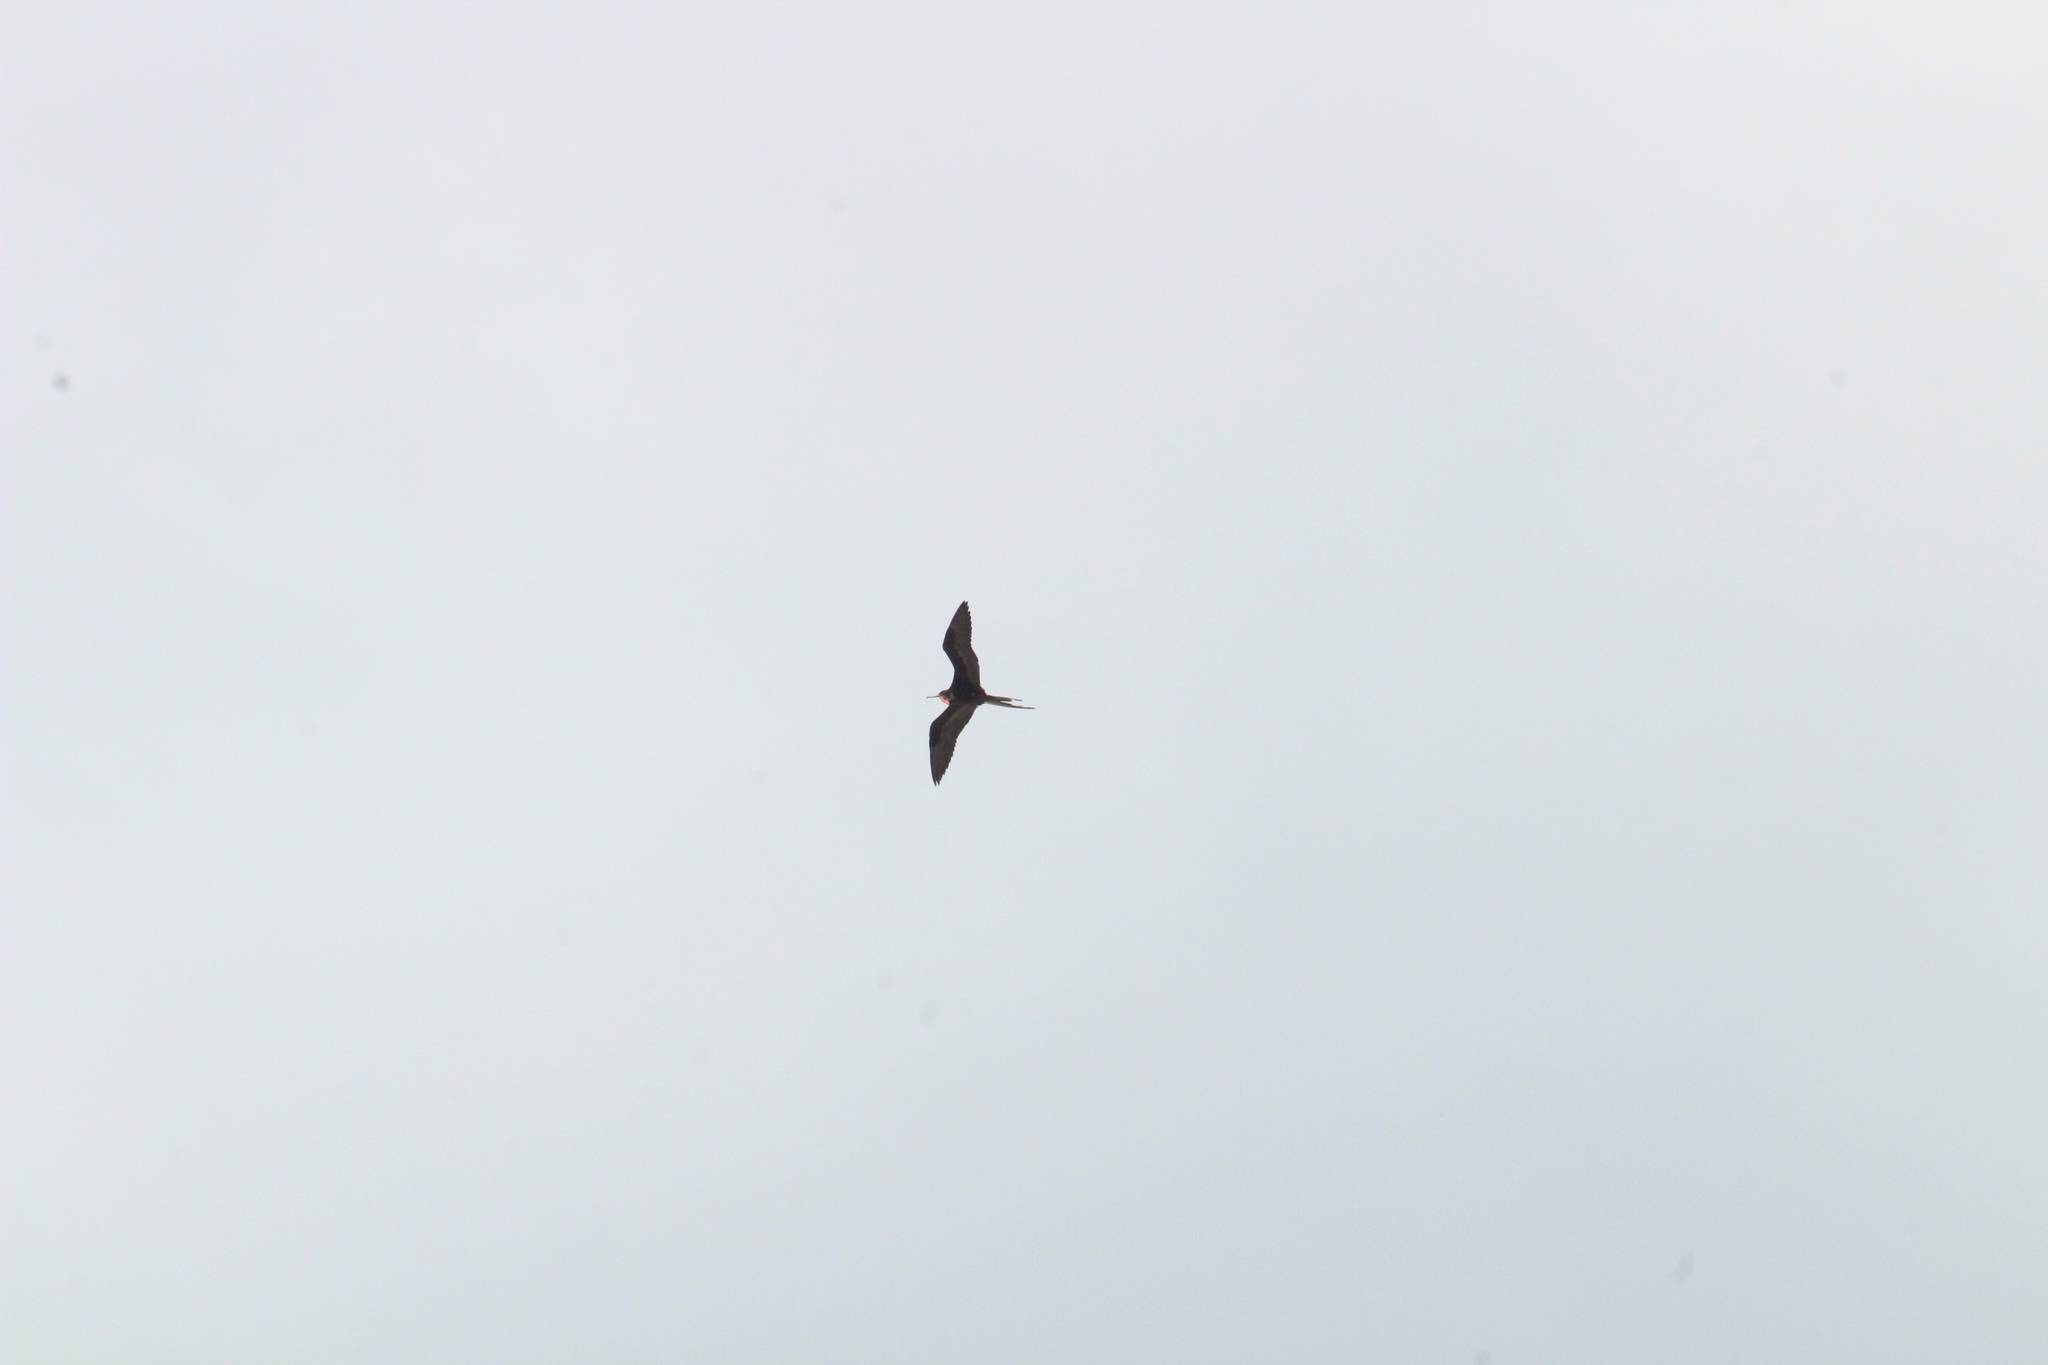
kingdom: Animalia
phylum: Chordata
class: Aves
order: Suliformes
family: Fregatidae
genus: Fregata
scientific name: Fregata magnificens
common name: Magnificent frigatebird
